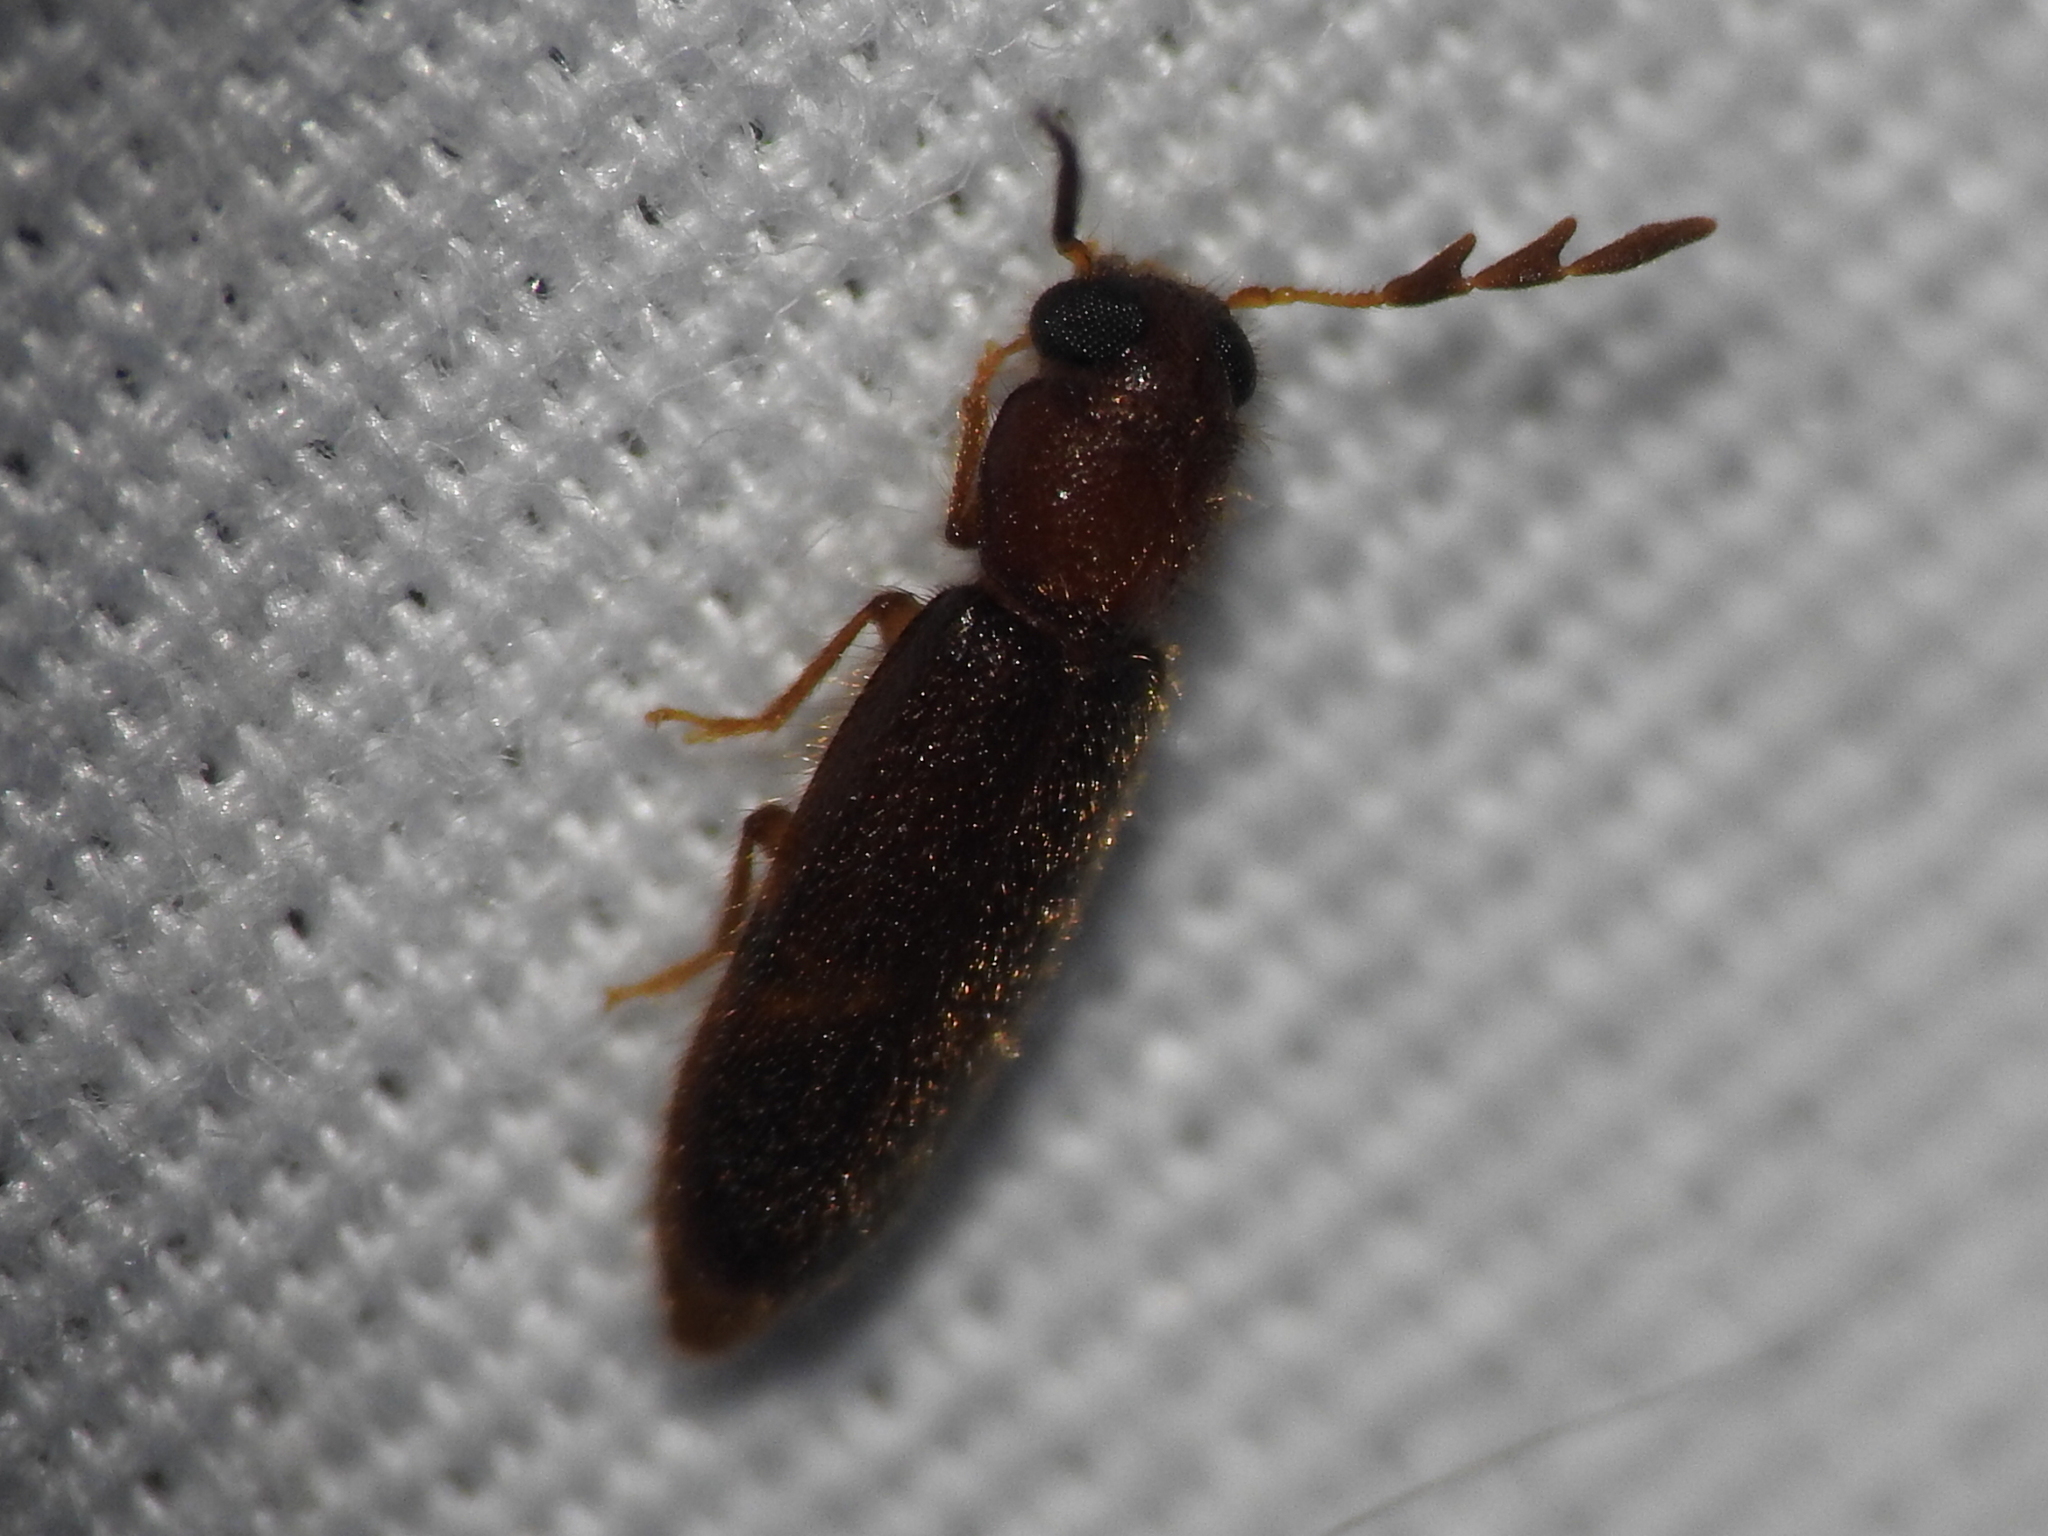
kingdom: Animalia
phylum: Arthropoda
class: Insecta
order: Coleoptera
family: Cleridae
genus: Neorthopleura
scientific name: Neorthopleura texana
